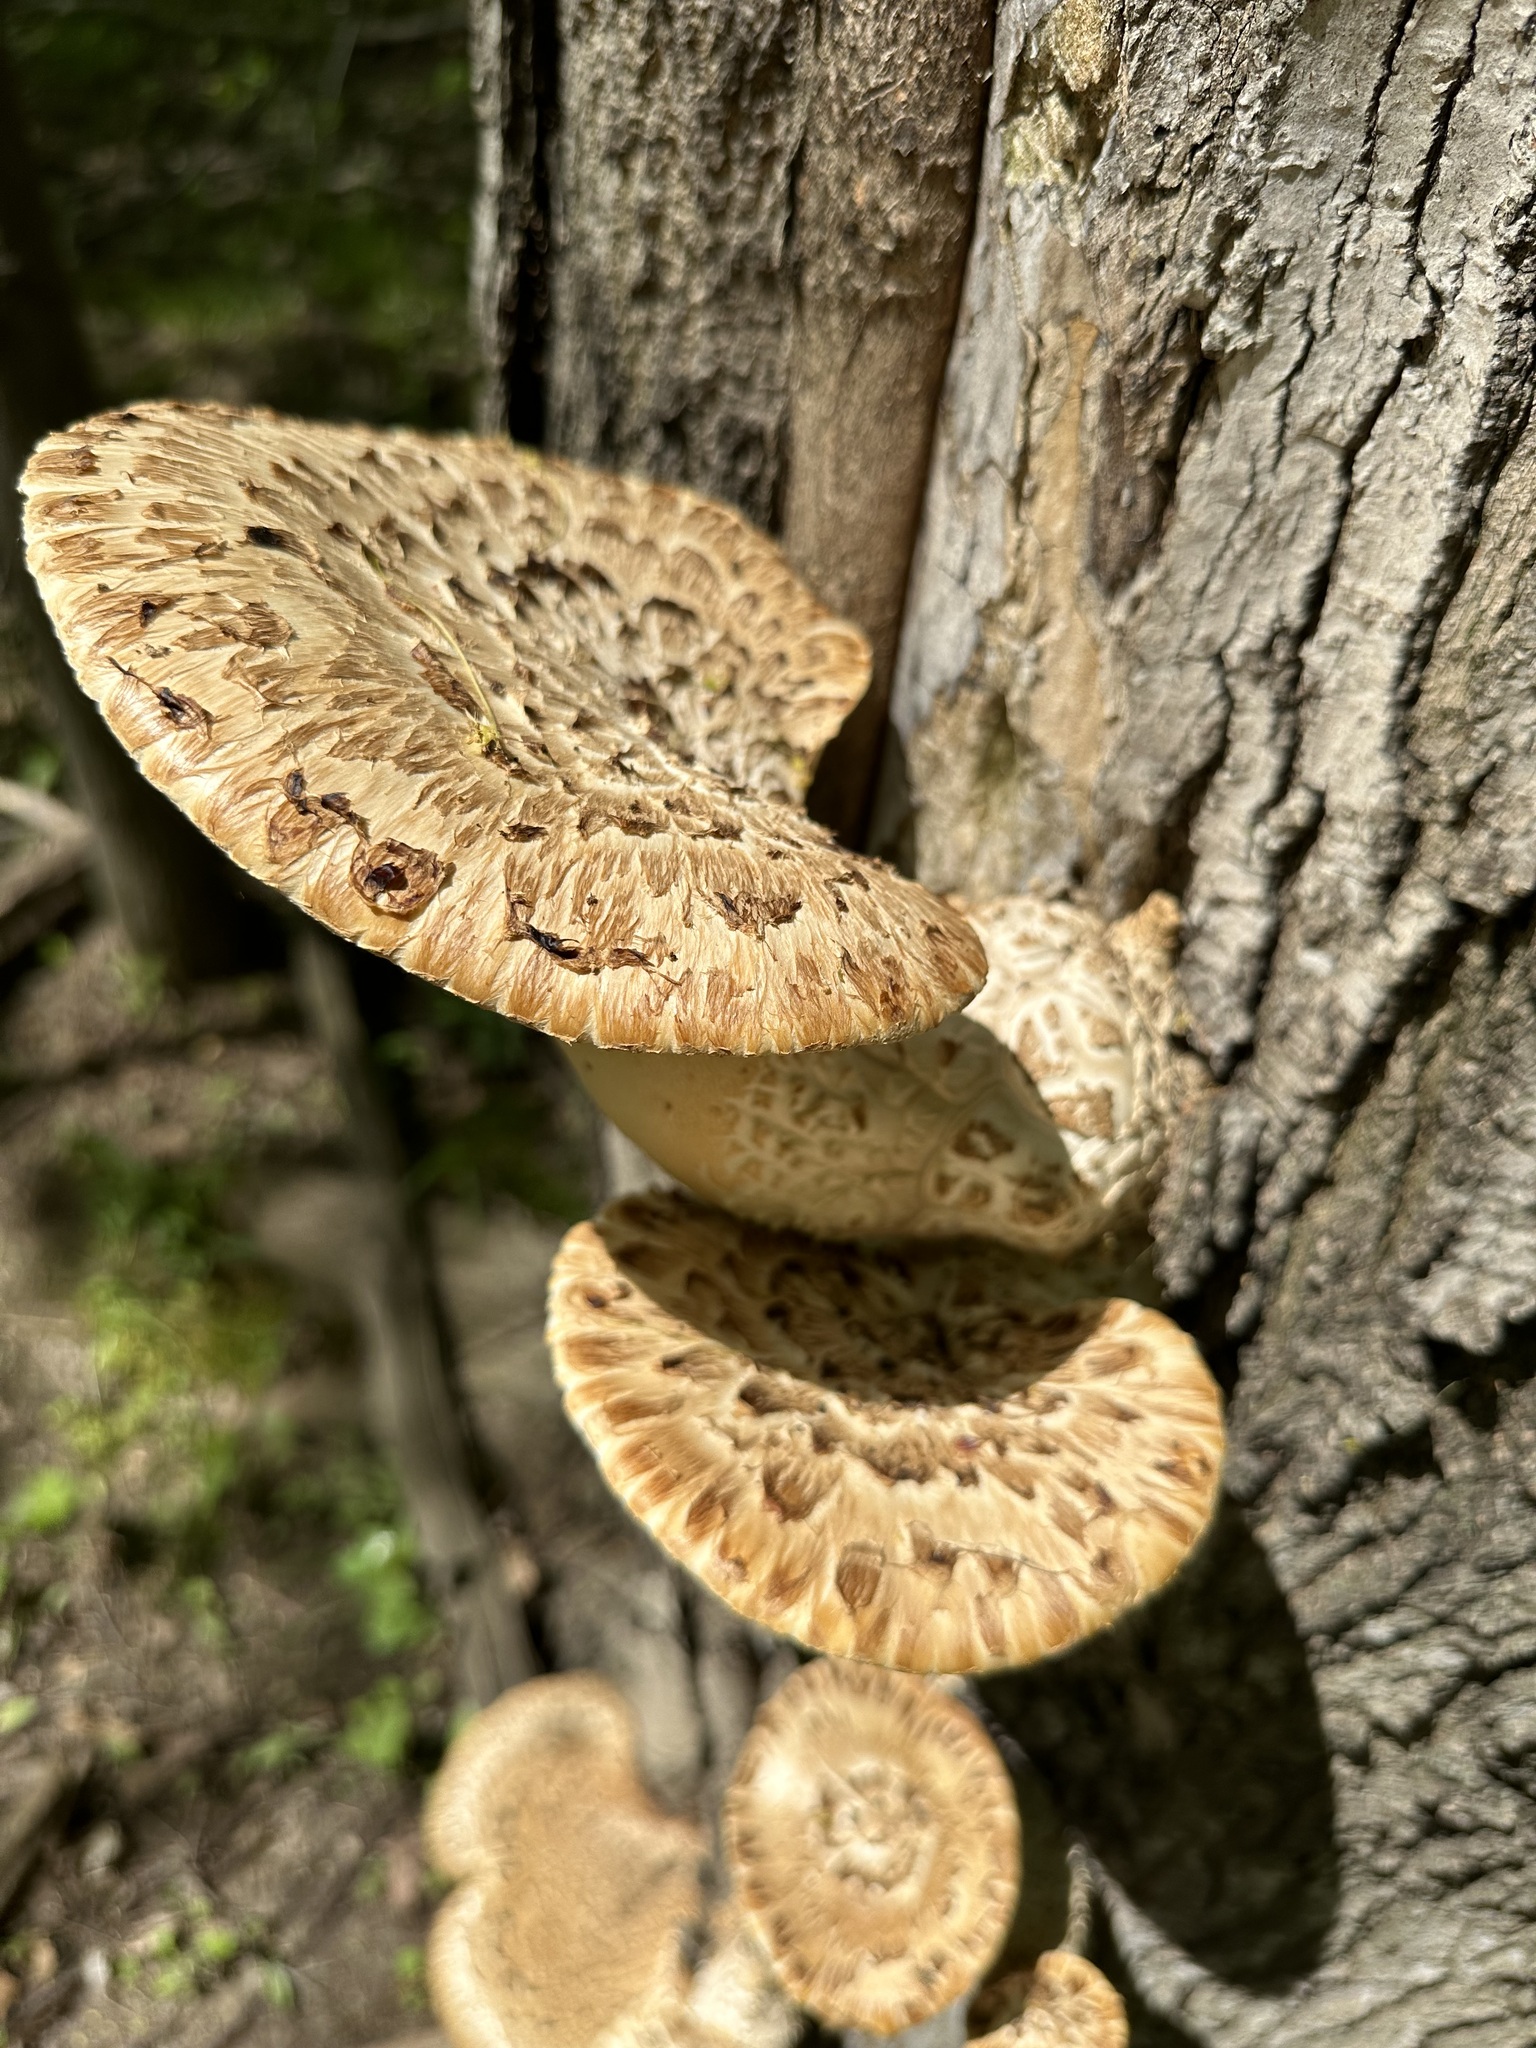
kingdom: Fungi
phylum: Basidiomycota
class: Agaricomycetes
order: Polyporales
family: Polyporaceae
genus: Cerioporus
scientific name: Cerioporus squamosus
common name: Dryad's saddle
